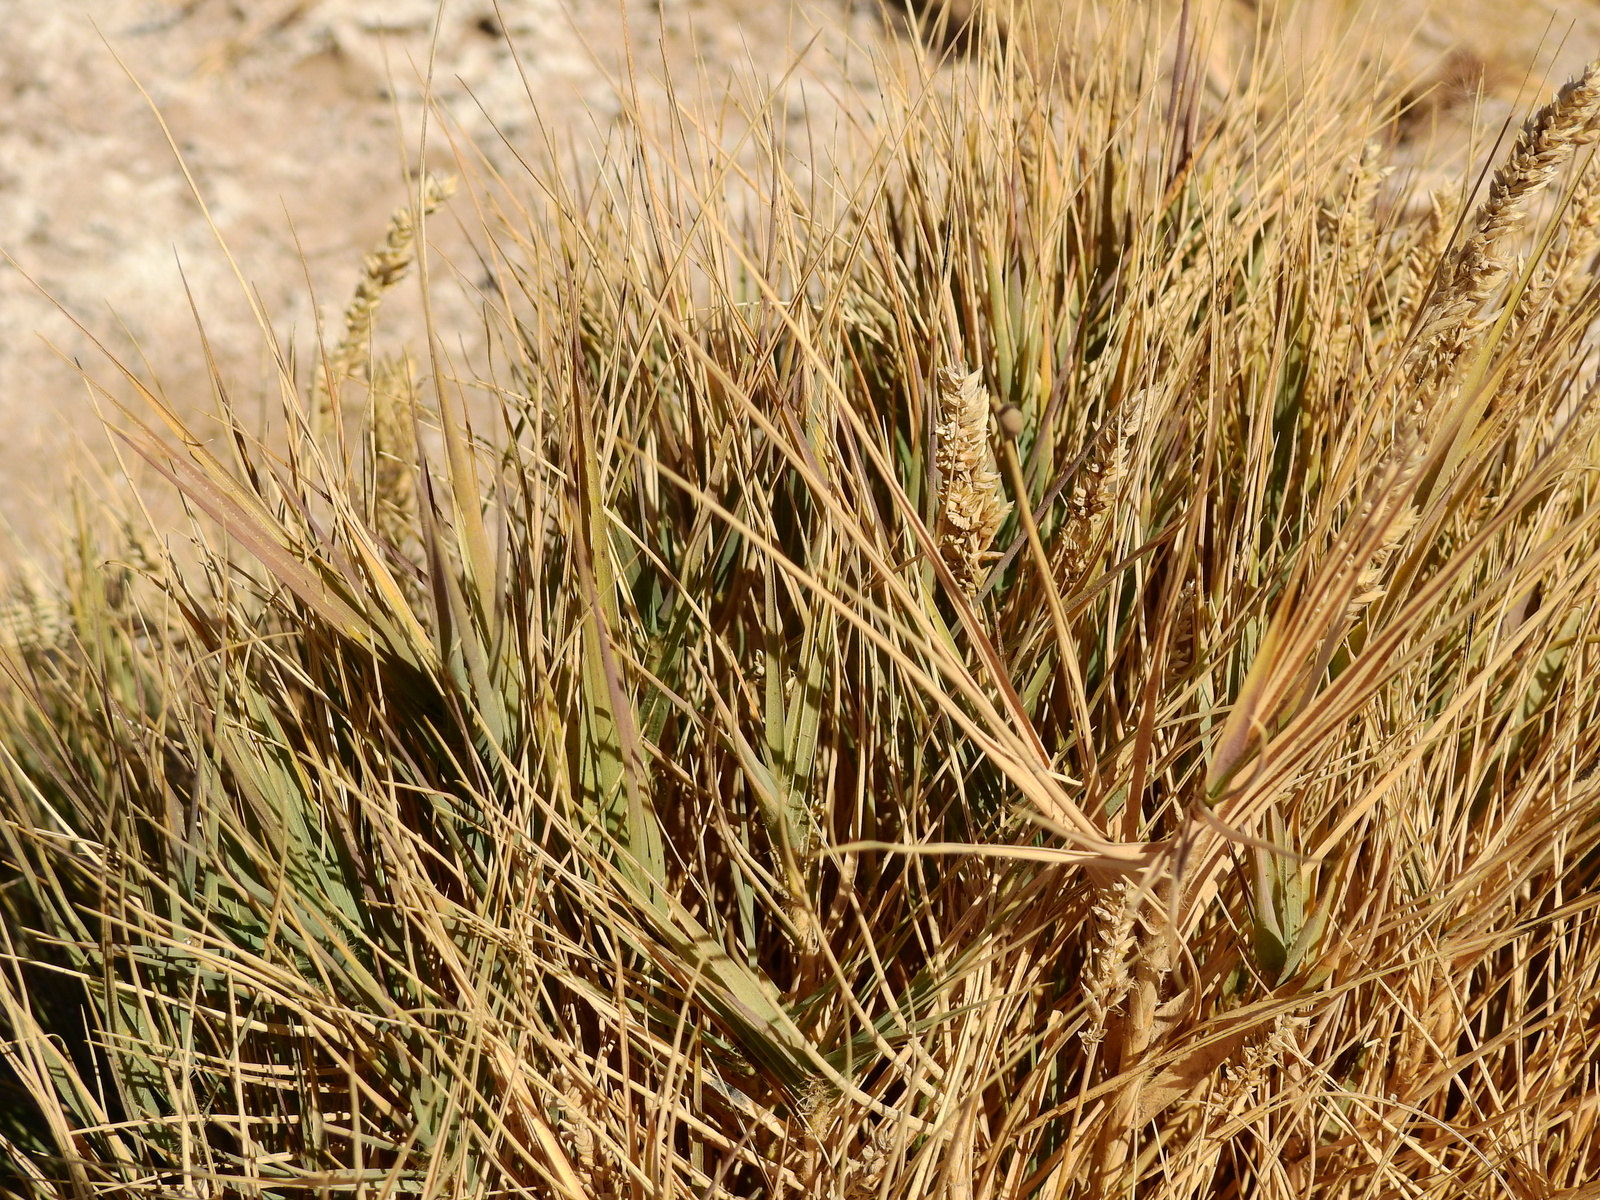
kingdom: Plantae
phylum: Tracheophyta
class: Liliopsida
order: Poales
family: Poaceae
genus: Distichlis
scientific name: Distichlis spicata
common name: Saltgrass
